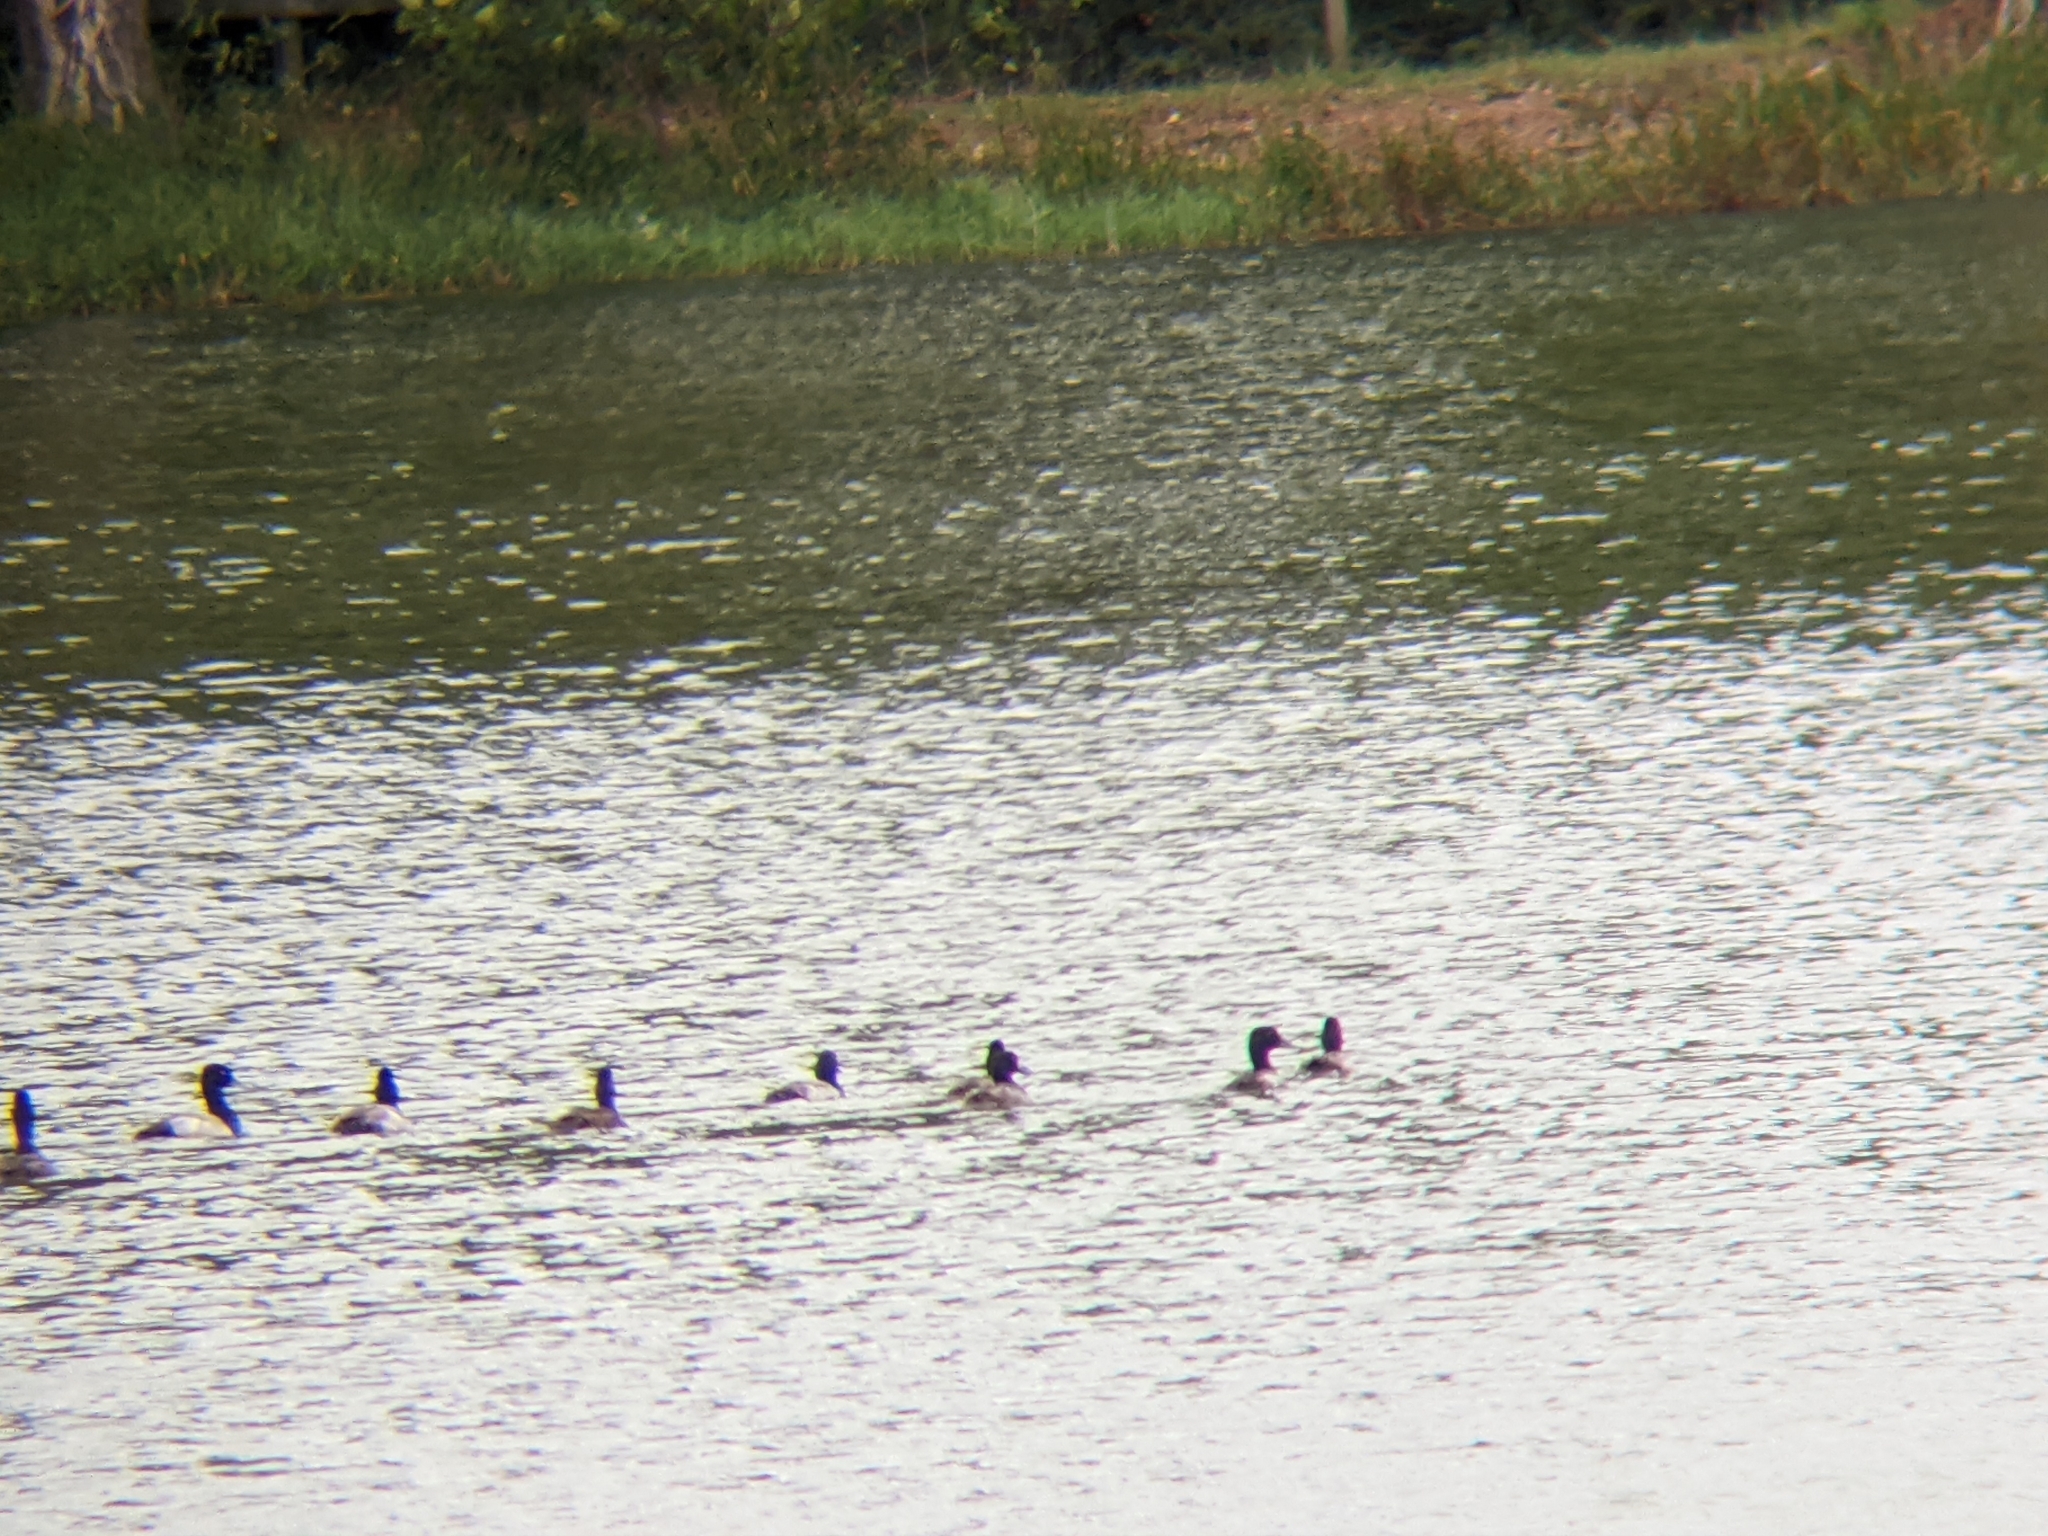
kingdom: Animalia
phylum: Chordata
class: Aves
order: Anseriformes
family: Anatidae
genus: Aythya
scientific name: Aythya affinis
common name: Lesser scaup
